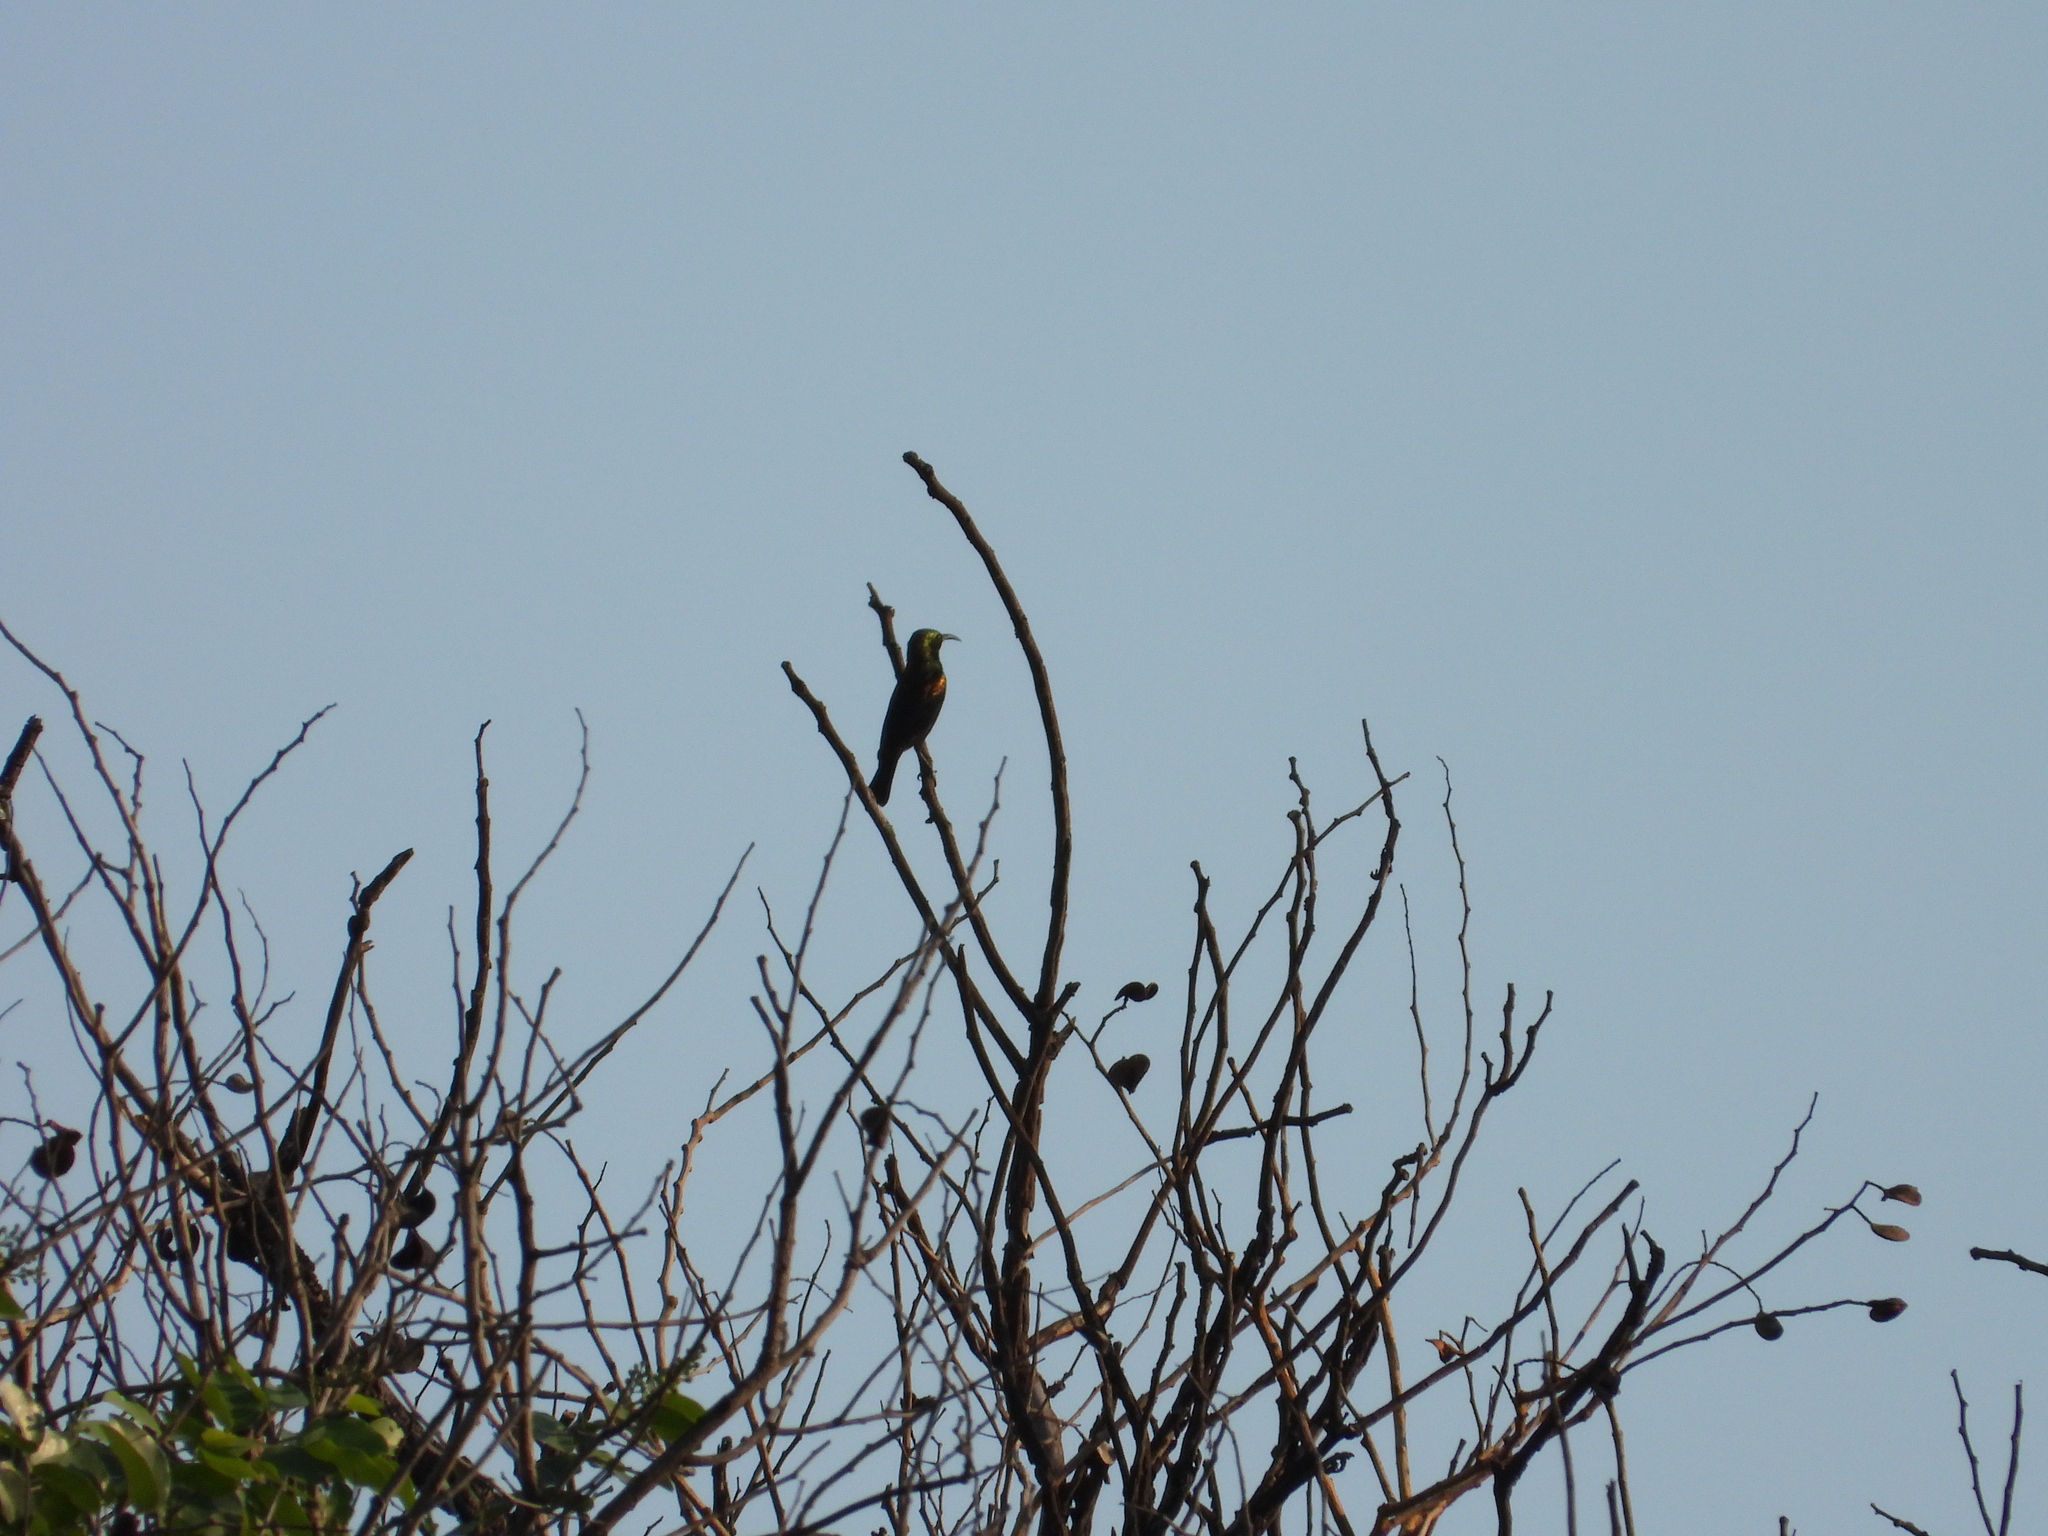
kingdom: Animalia
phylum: Chordata
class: Aves
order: Passeriformes
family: Nectariniidae
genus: Cinnyris
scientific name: Cinnyris cupreus
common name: Copper sunbird
